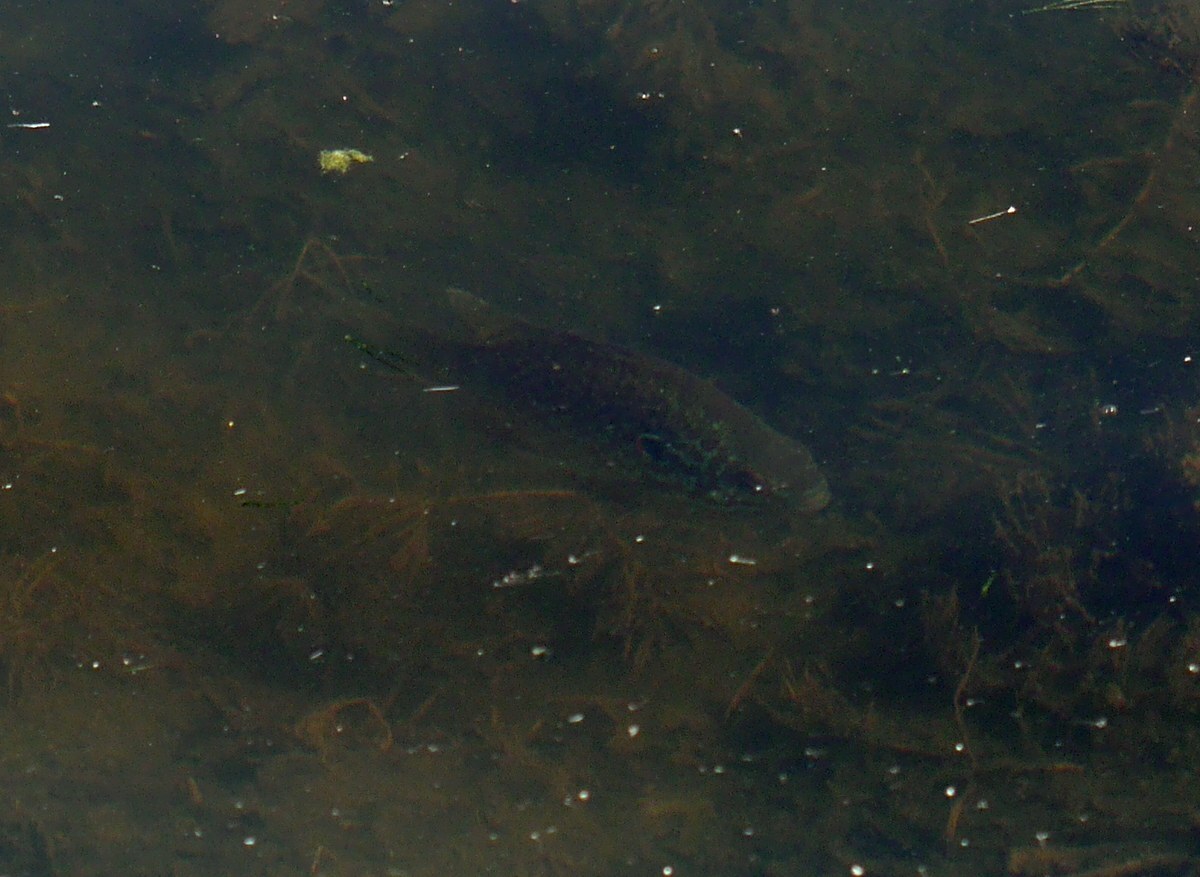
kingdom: Animalia
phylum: Chordata
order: Perciformes
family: Centrarchidae
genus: Lepomis
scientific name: Lepomis gibbosus
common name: Pumpkinseed
